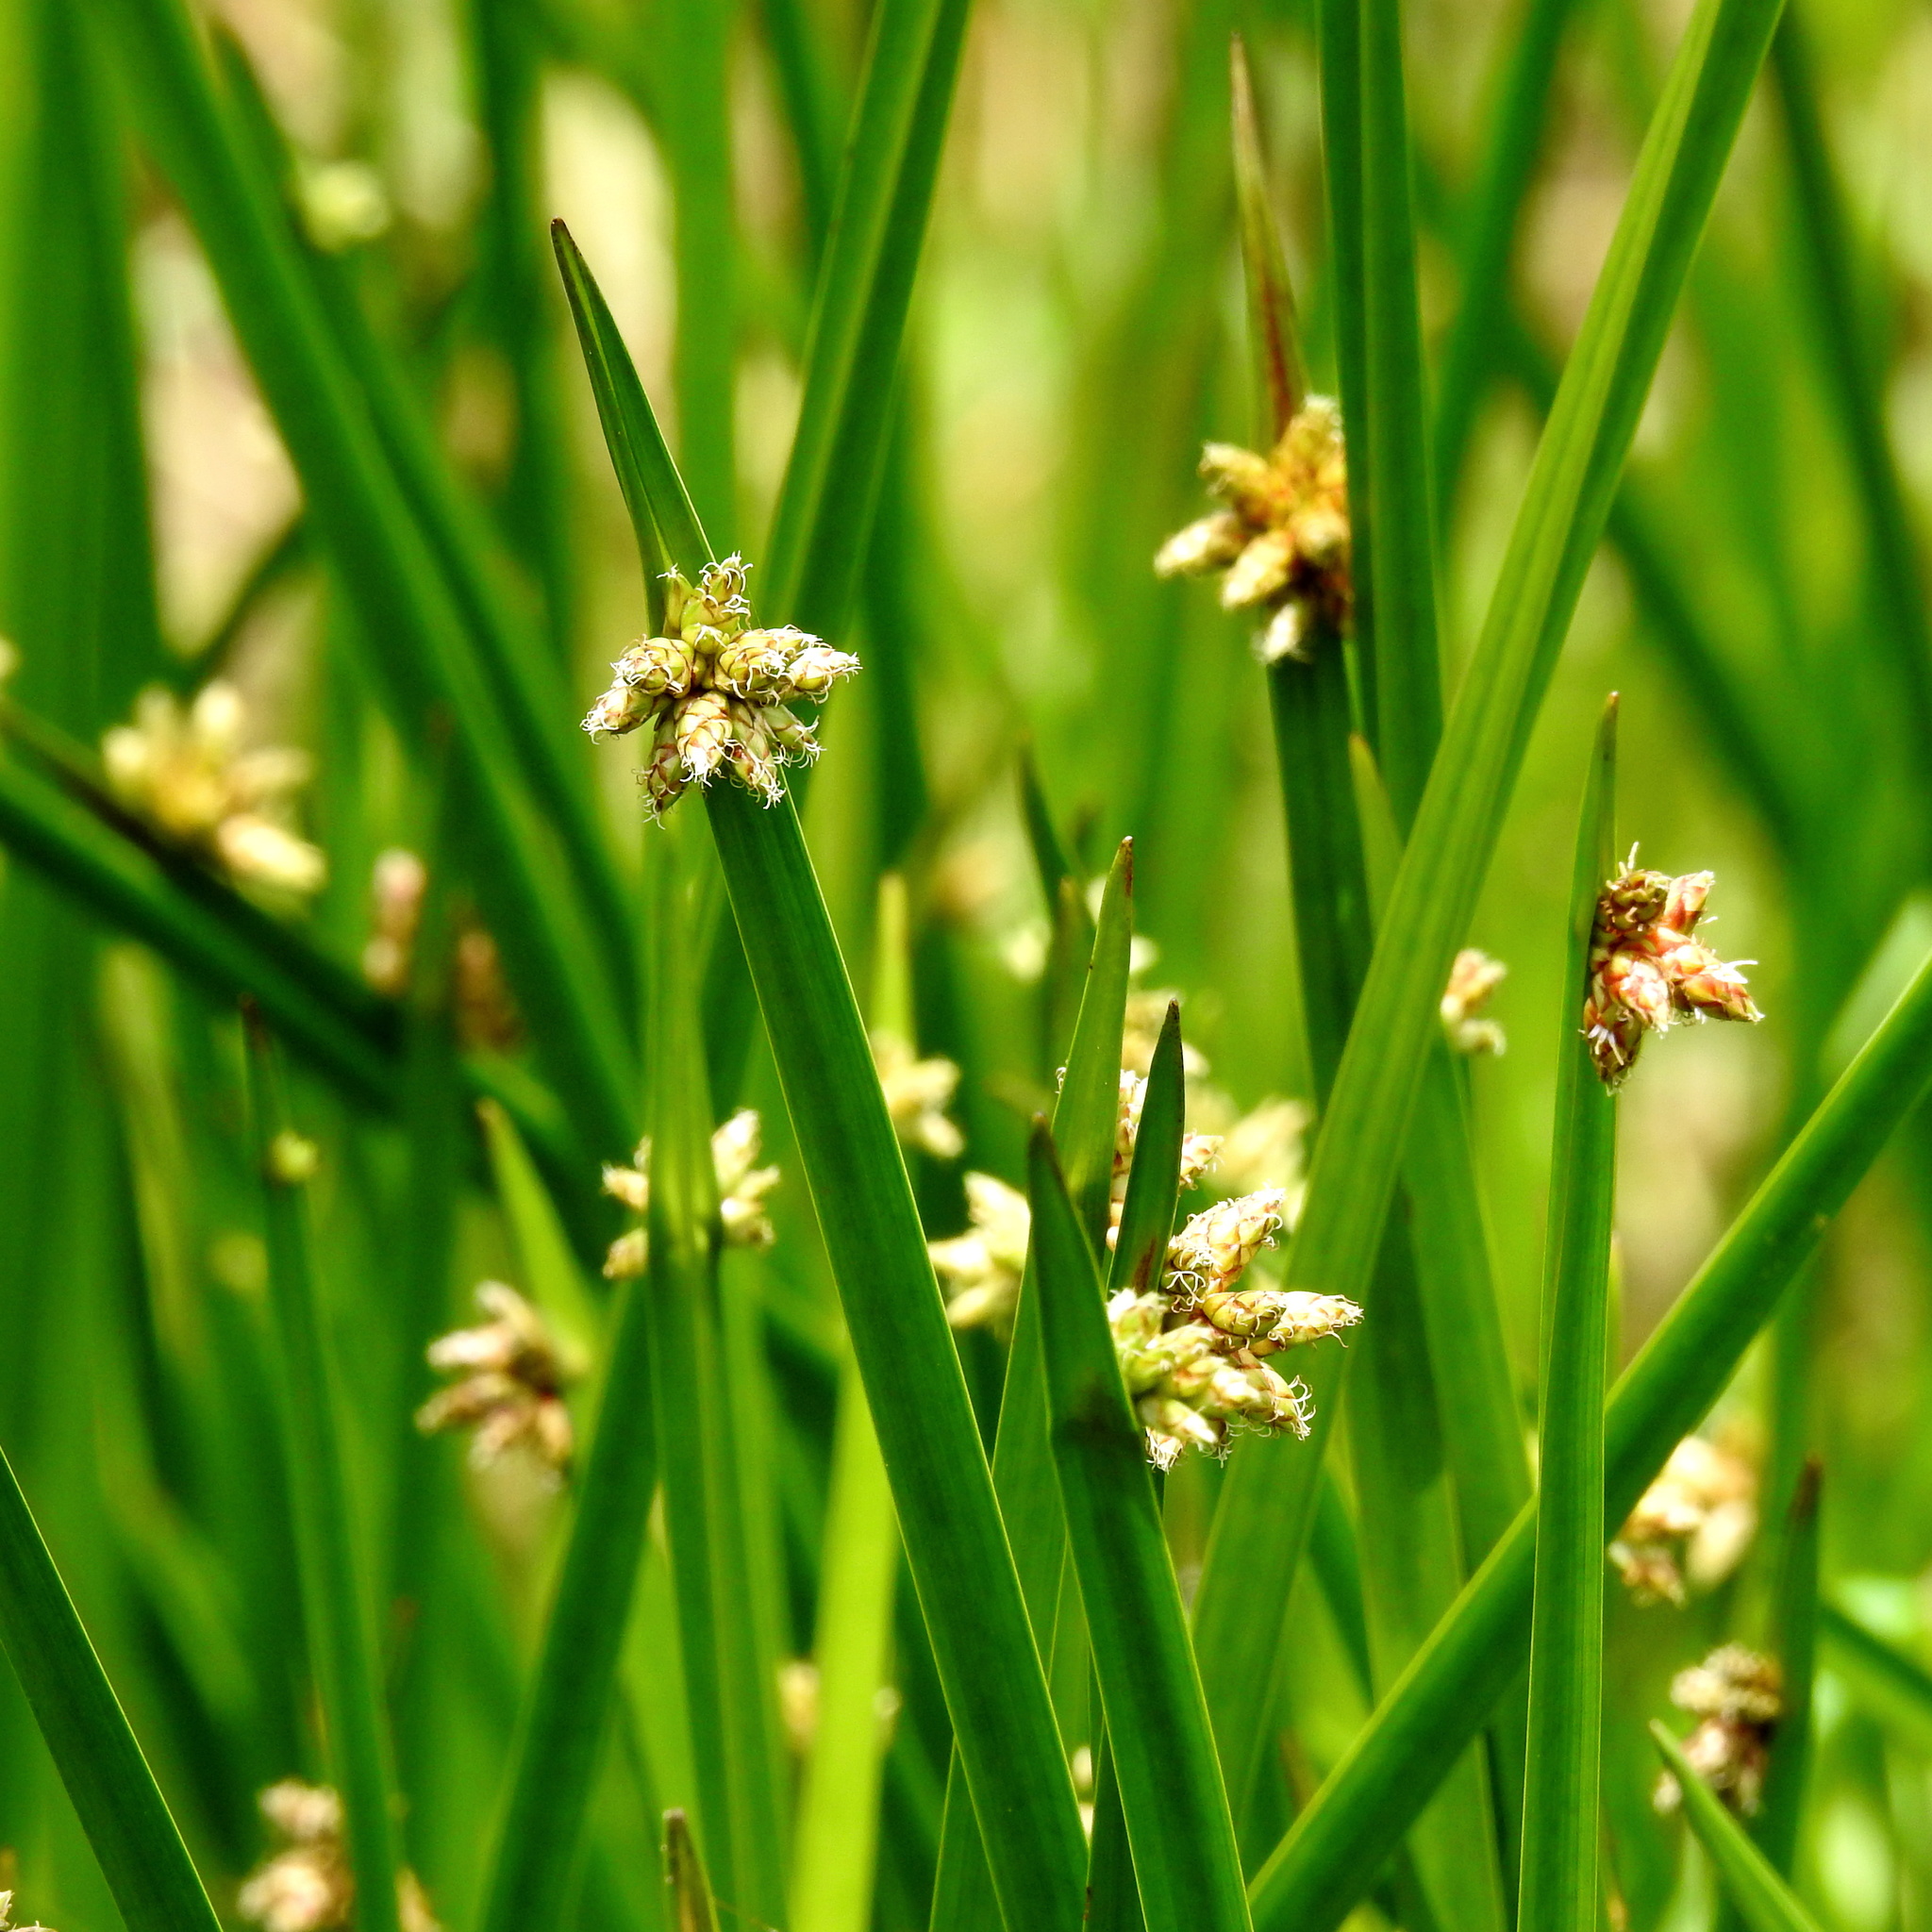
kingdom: Plantae
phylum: Tracheophyta
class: Liliopsida
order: Poales
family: Cyperaceae
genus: Schoenoplectiella
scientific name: Schoenoplectiella mucronata
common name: Bog bulrush
